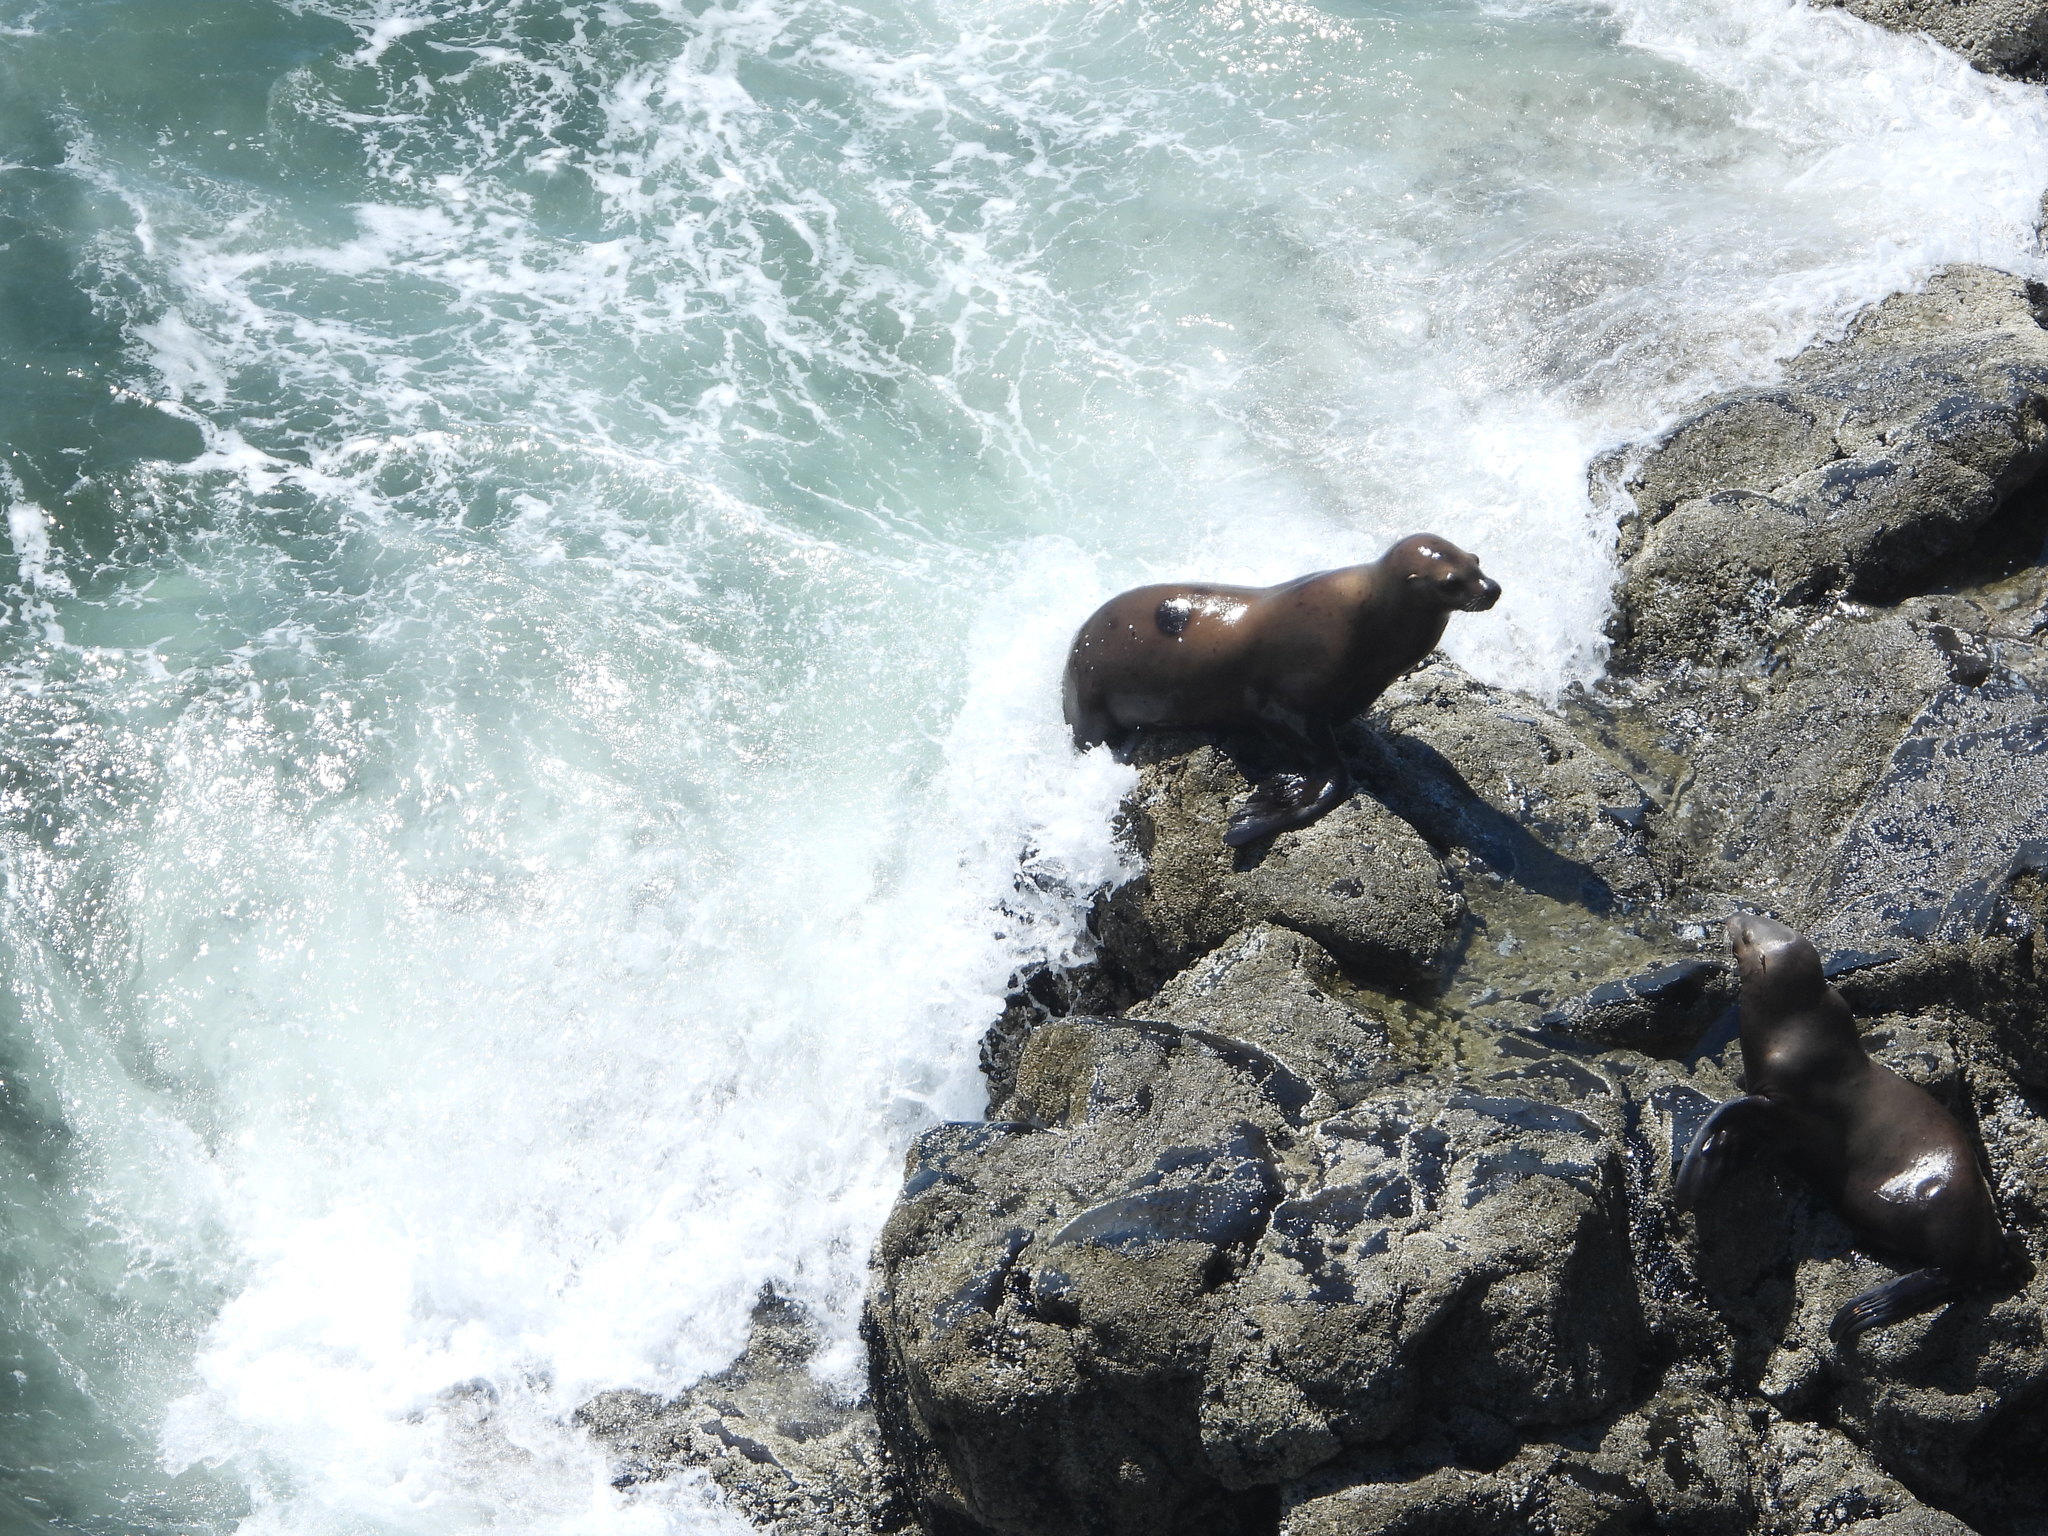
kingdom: Animalia
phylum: Chordata
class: Mammalia
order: Carnivora
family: Otariidae
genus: Eumetopias
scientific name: Eumetopias jubatus
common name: Steller sea lion
